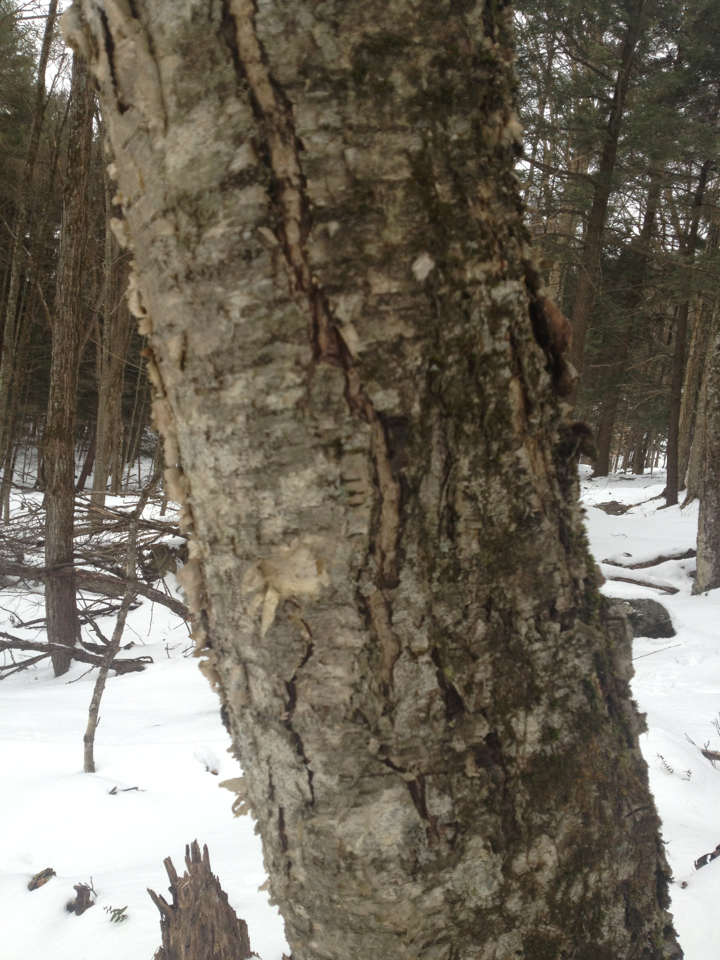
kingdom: Plantae
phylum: Tracheophyta
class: Magnoliopsida
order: Fagales
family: Betulaceae
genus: Betula
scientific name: Betula alleghaniensis
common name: Yellow birch
